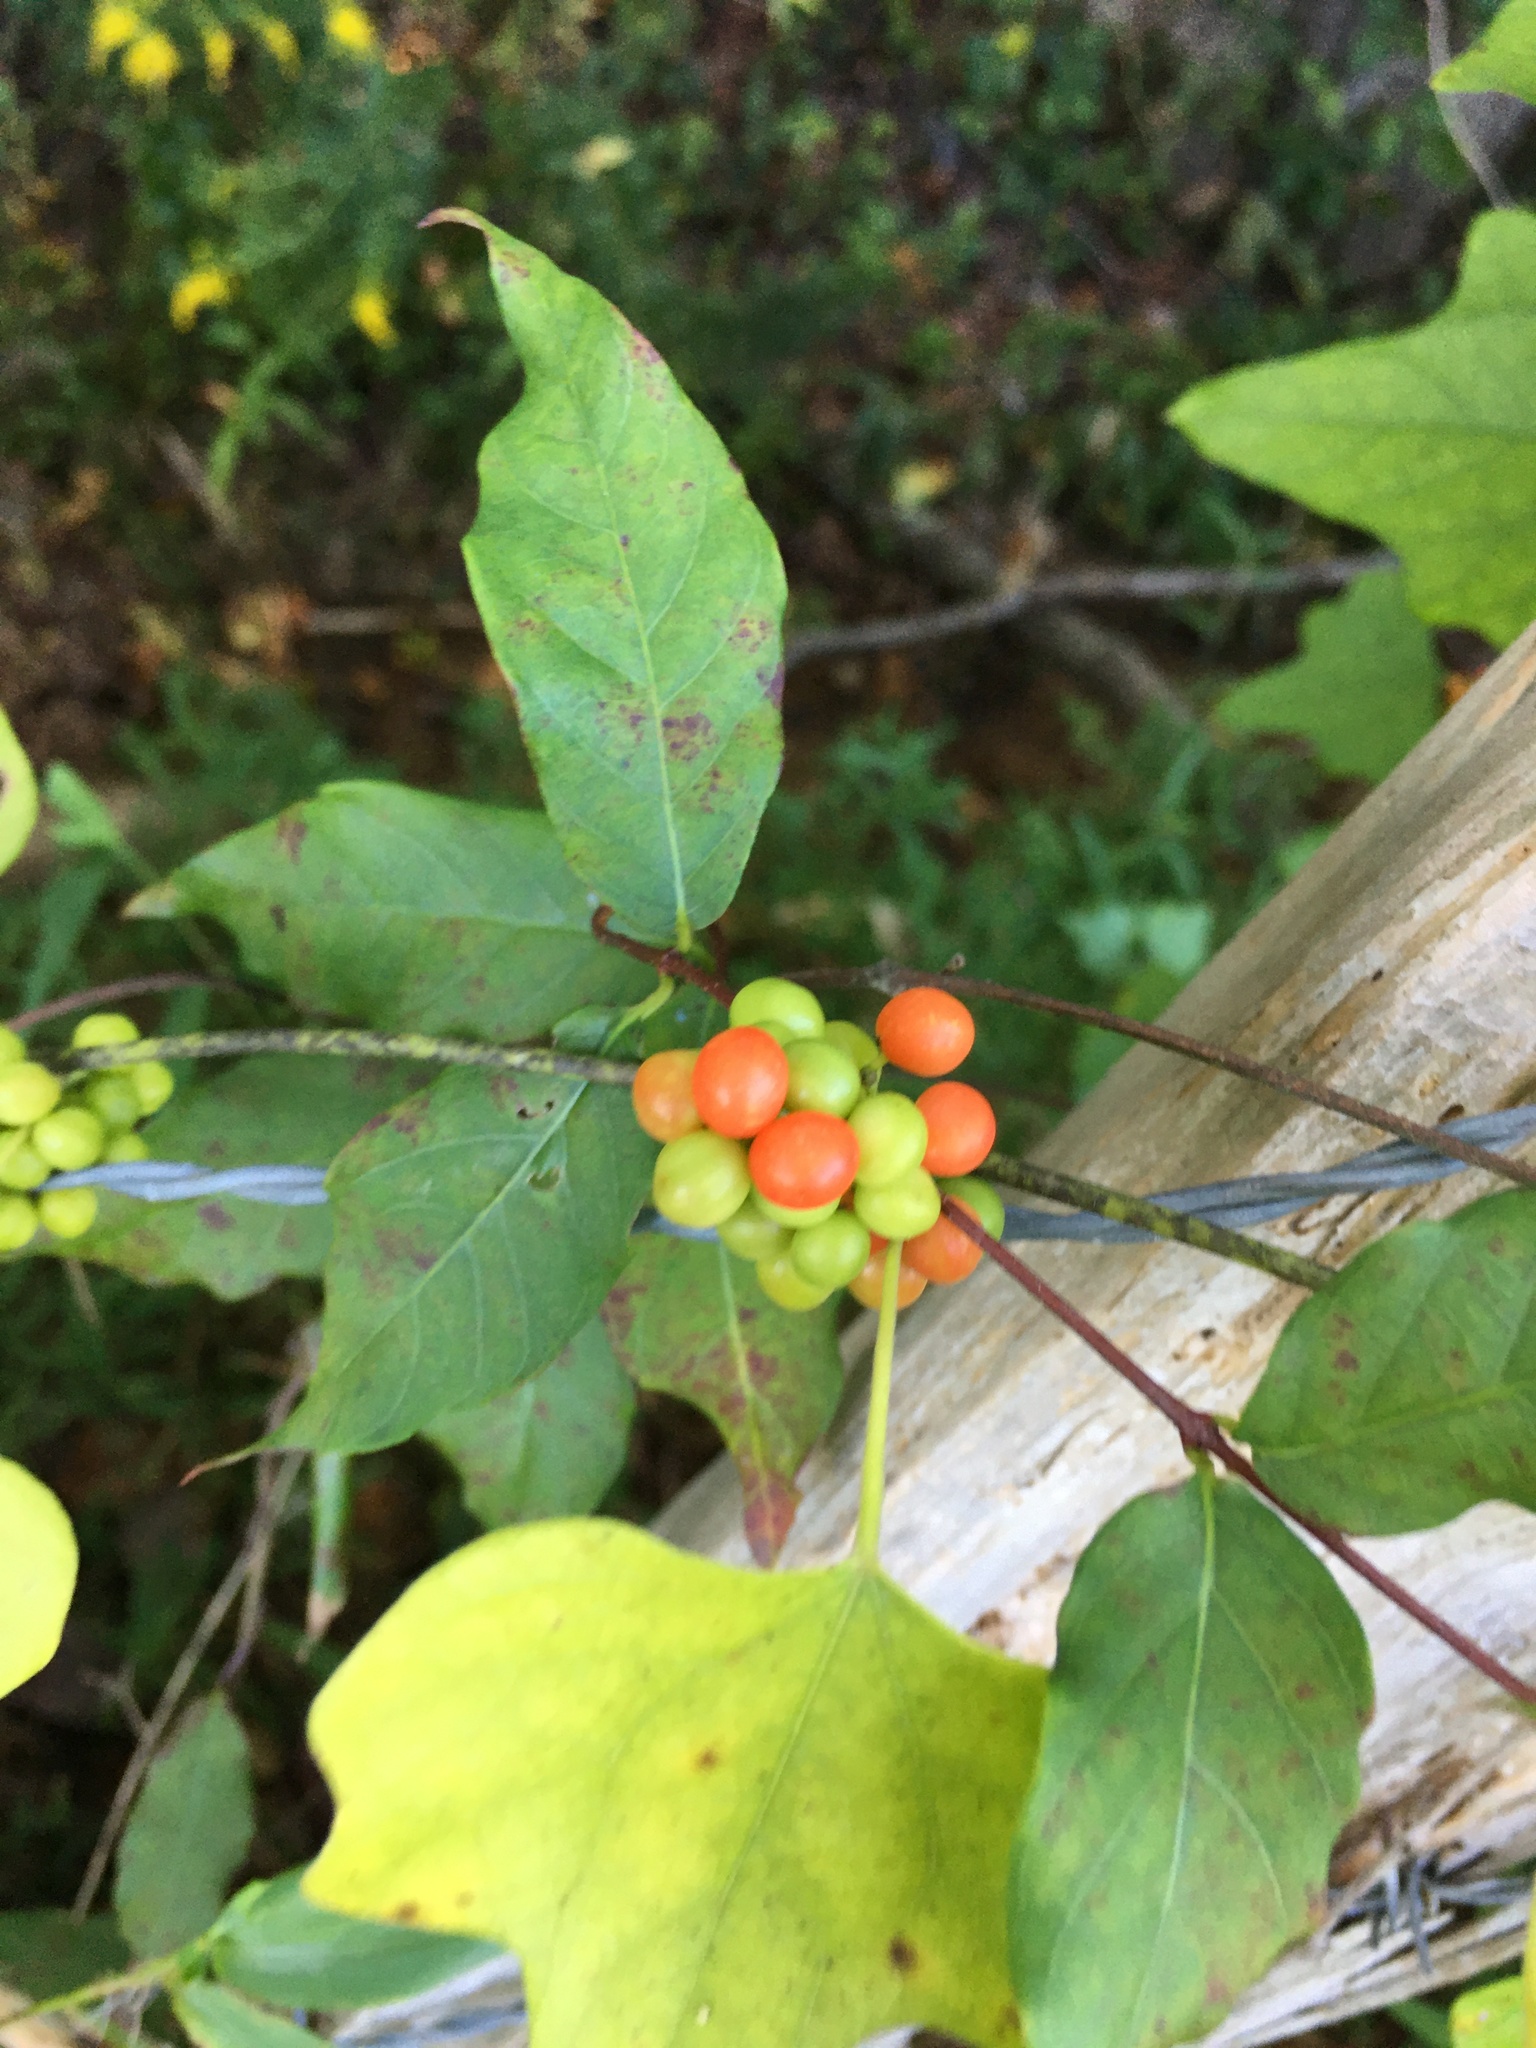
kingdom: Plantae
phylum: Tracheophyta
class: Magnoliopsida
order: Ranunculales
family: Menispermaceae
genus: Cocculus
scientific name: Cocculus carolinus
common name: Carolina moonseed
